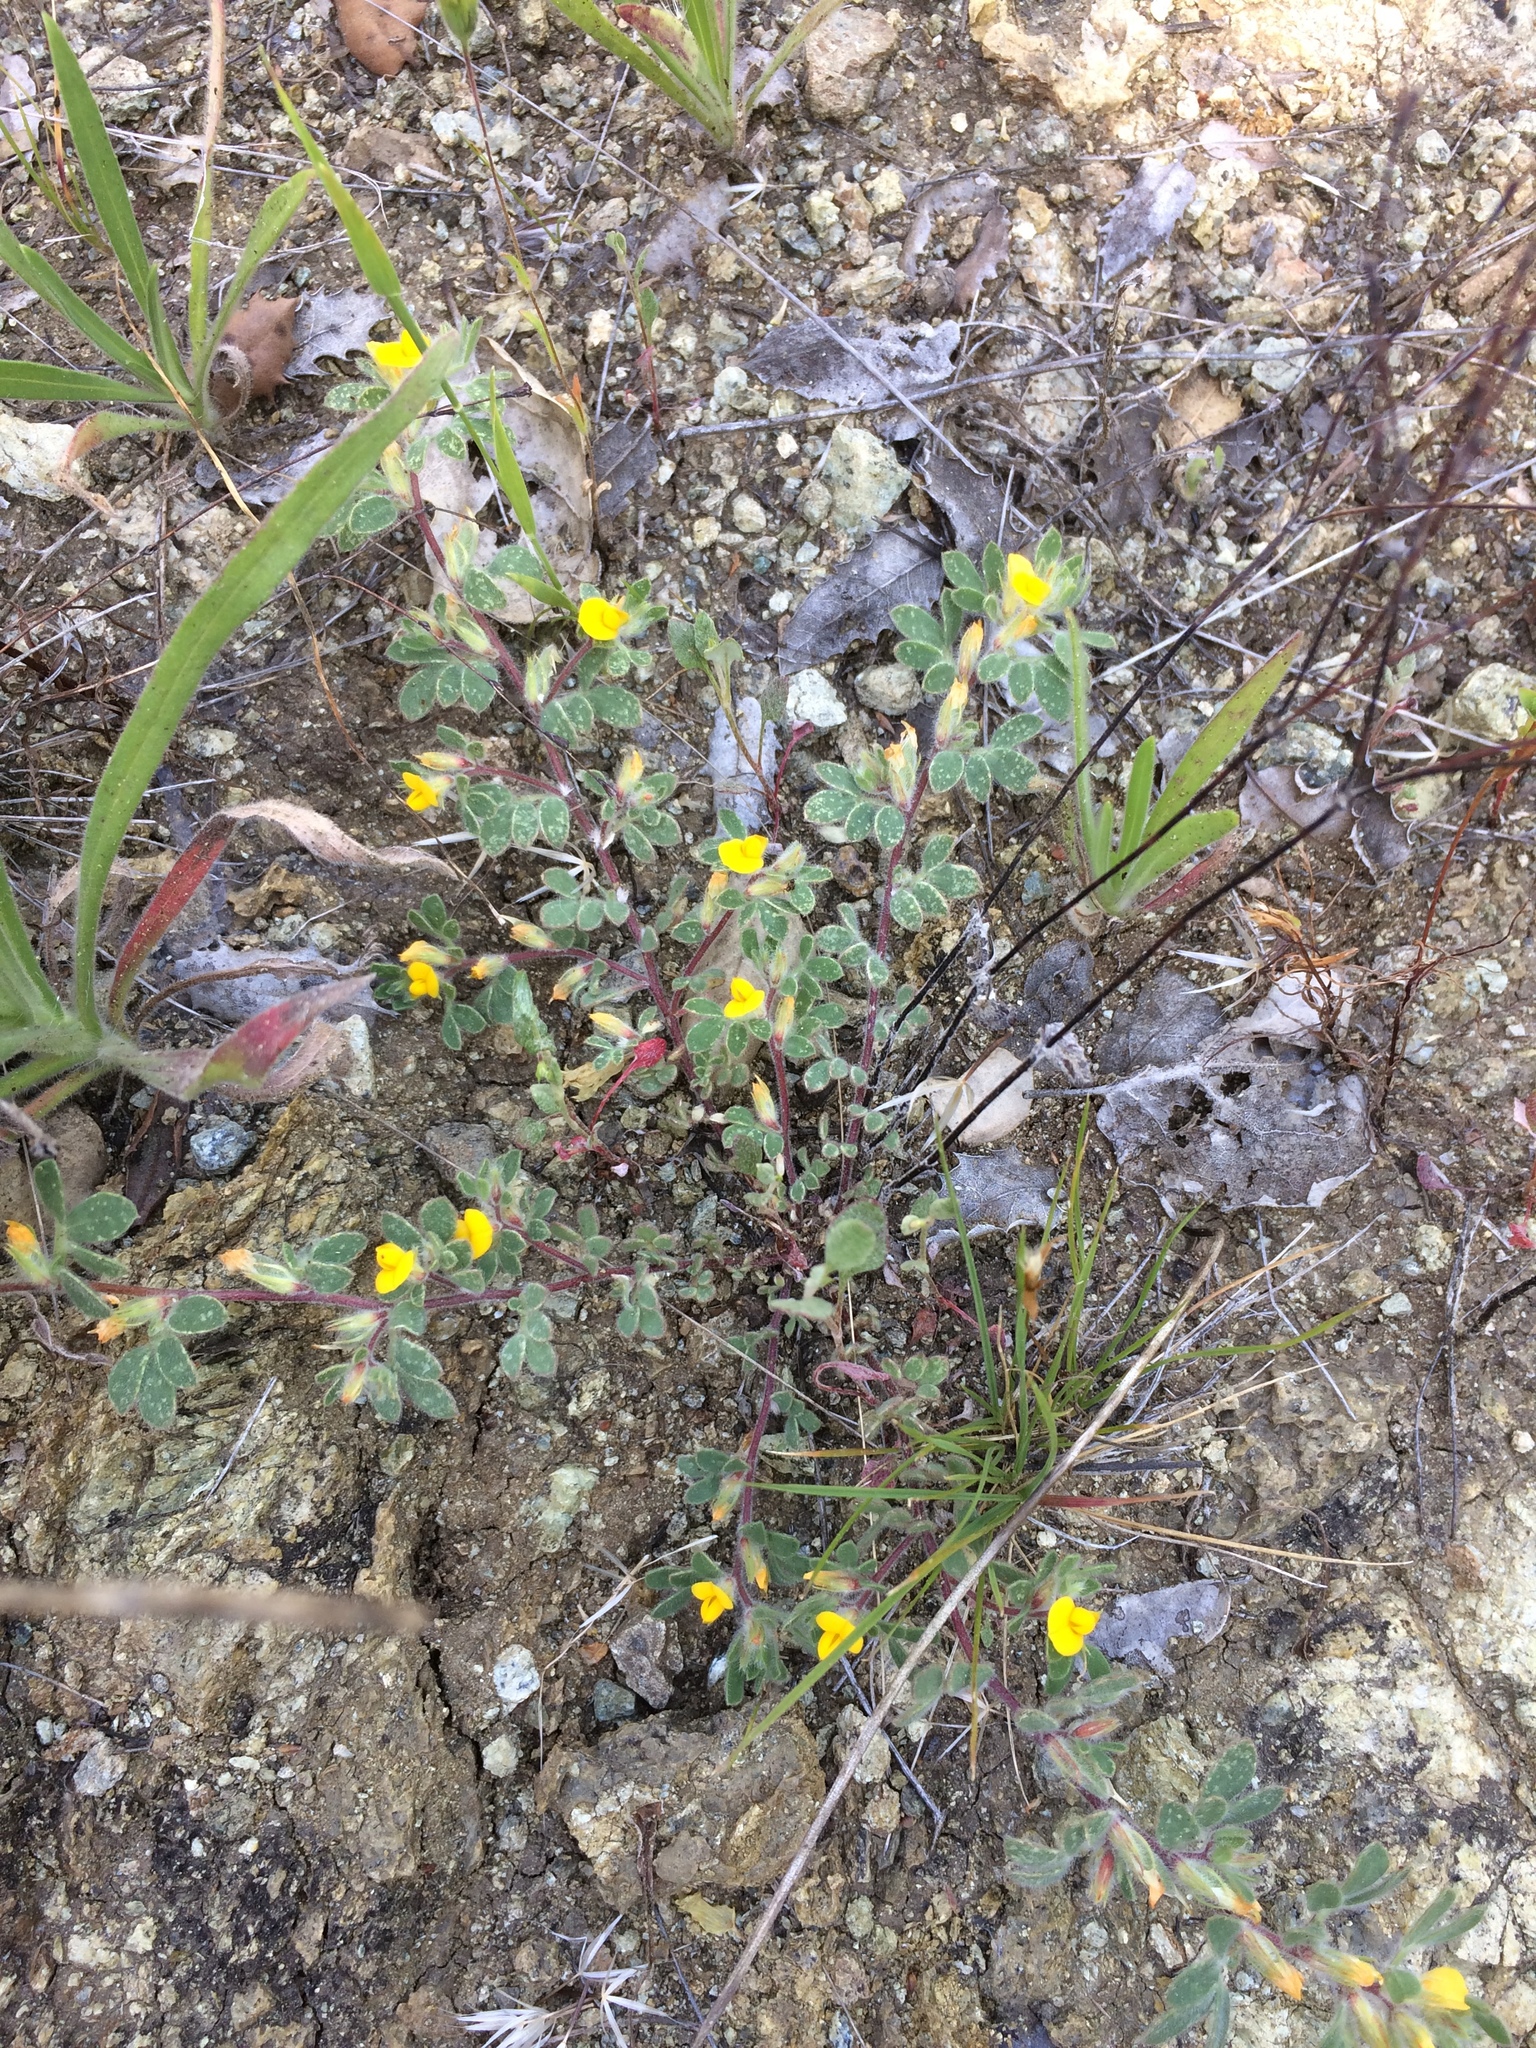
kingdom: Plantae
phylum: Tracheophyta
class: Magnoliopsida
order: Fabales
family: Fabaceae
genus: Acmispon
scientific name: Acmispon wrangelianus
